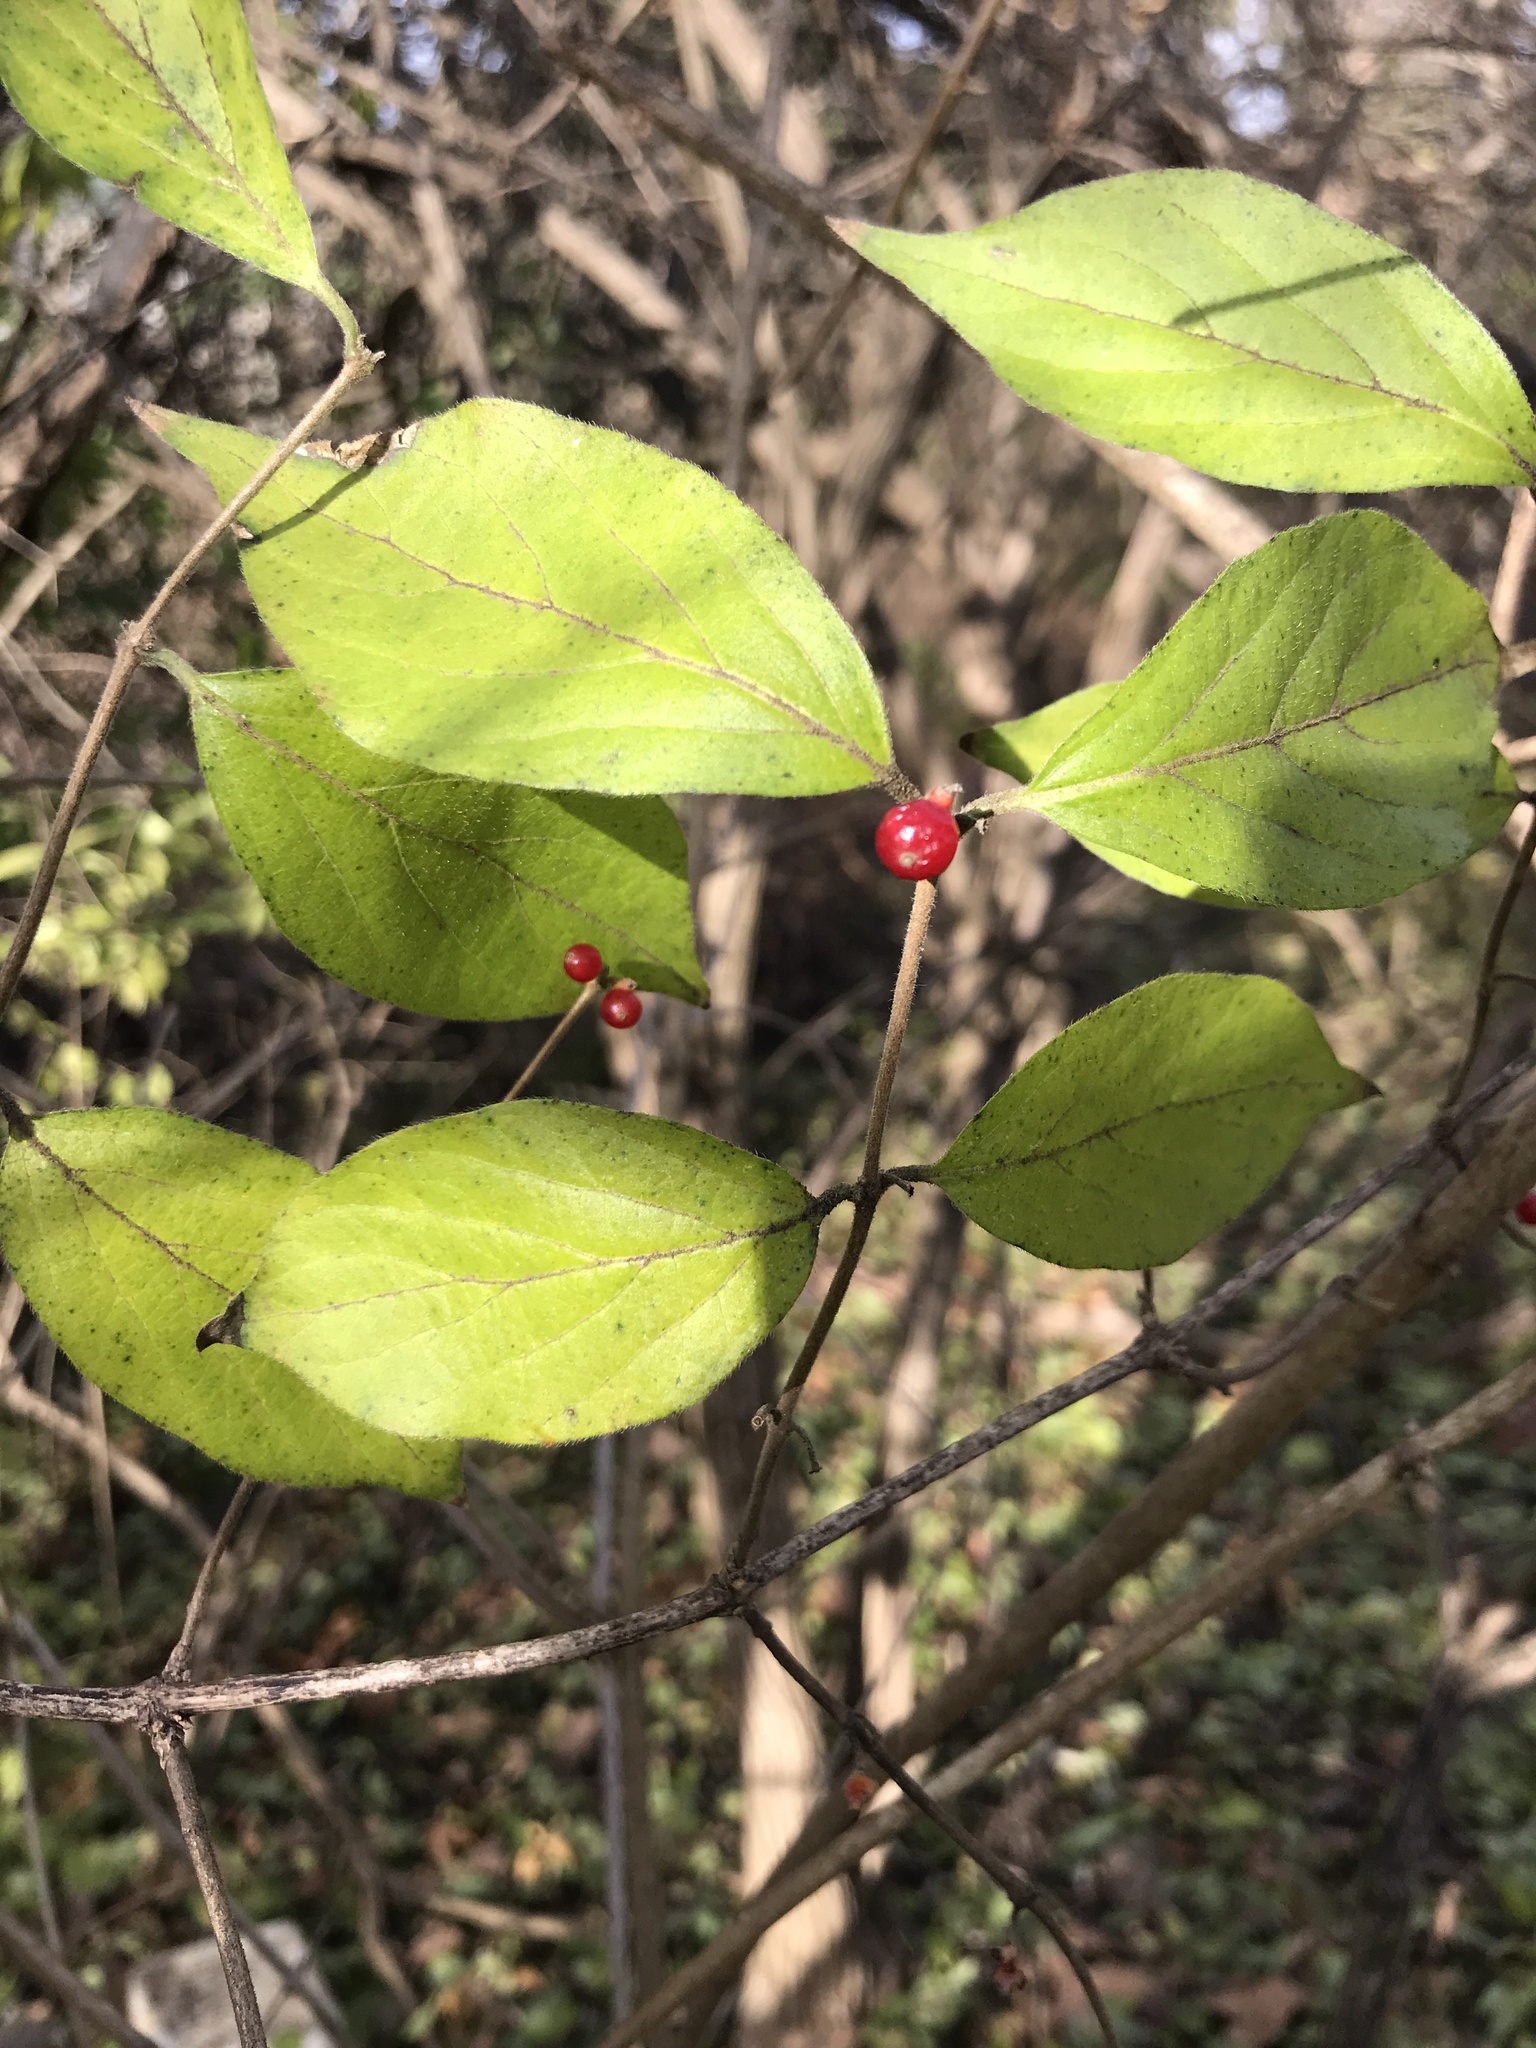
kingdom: Plantae
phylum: Tracheophyta
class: Magnoliopsida
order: Dipsacales
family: Caprifoliaceae
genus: Lonicera
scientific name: Lonicera maackii
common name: Amur honeysuckle
